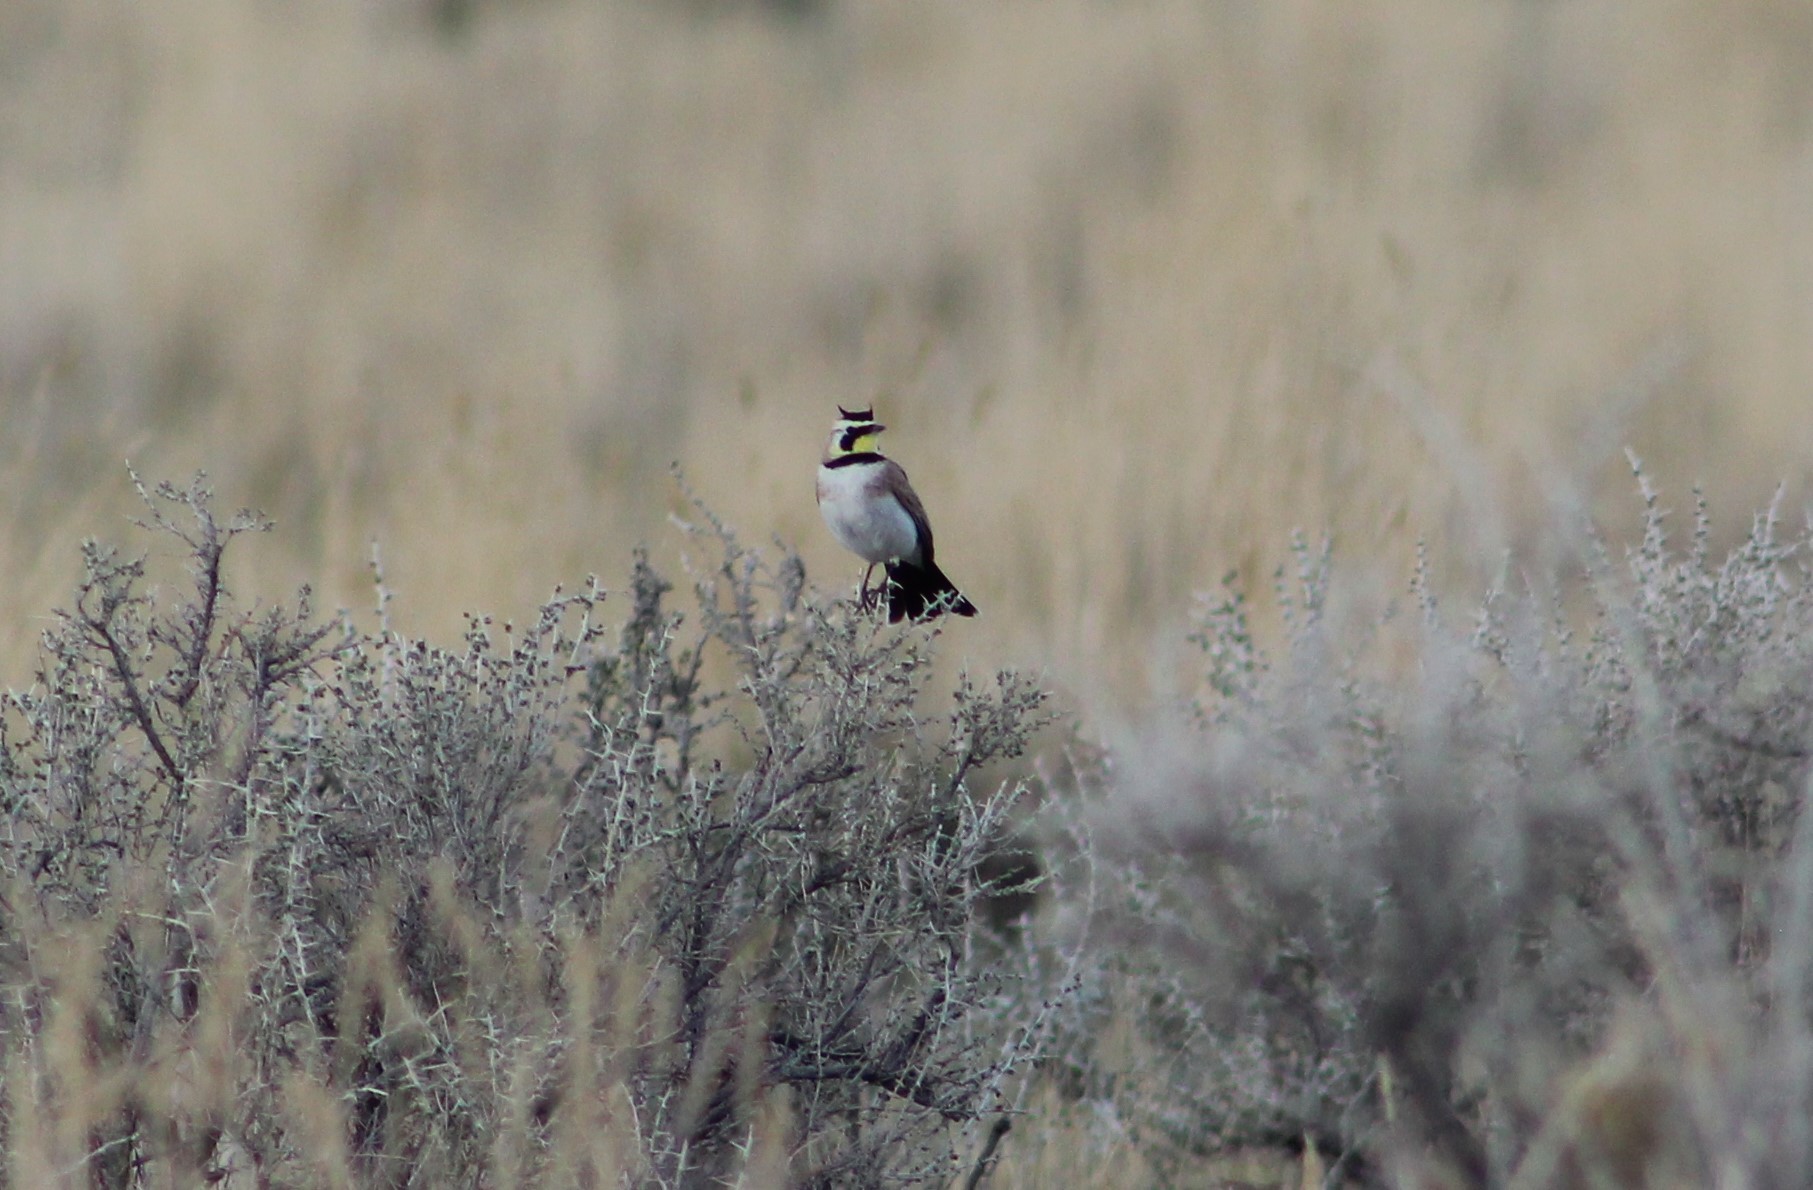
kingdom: Animalia
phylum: Chordata
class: Aves
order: Passeriformes
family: Alaudidae
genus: Eremophila
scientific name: Eremophila alpestris
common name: Horned lark
